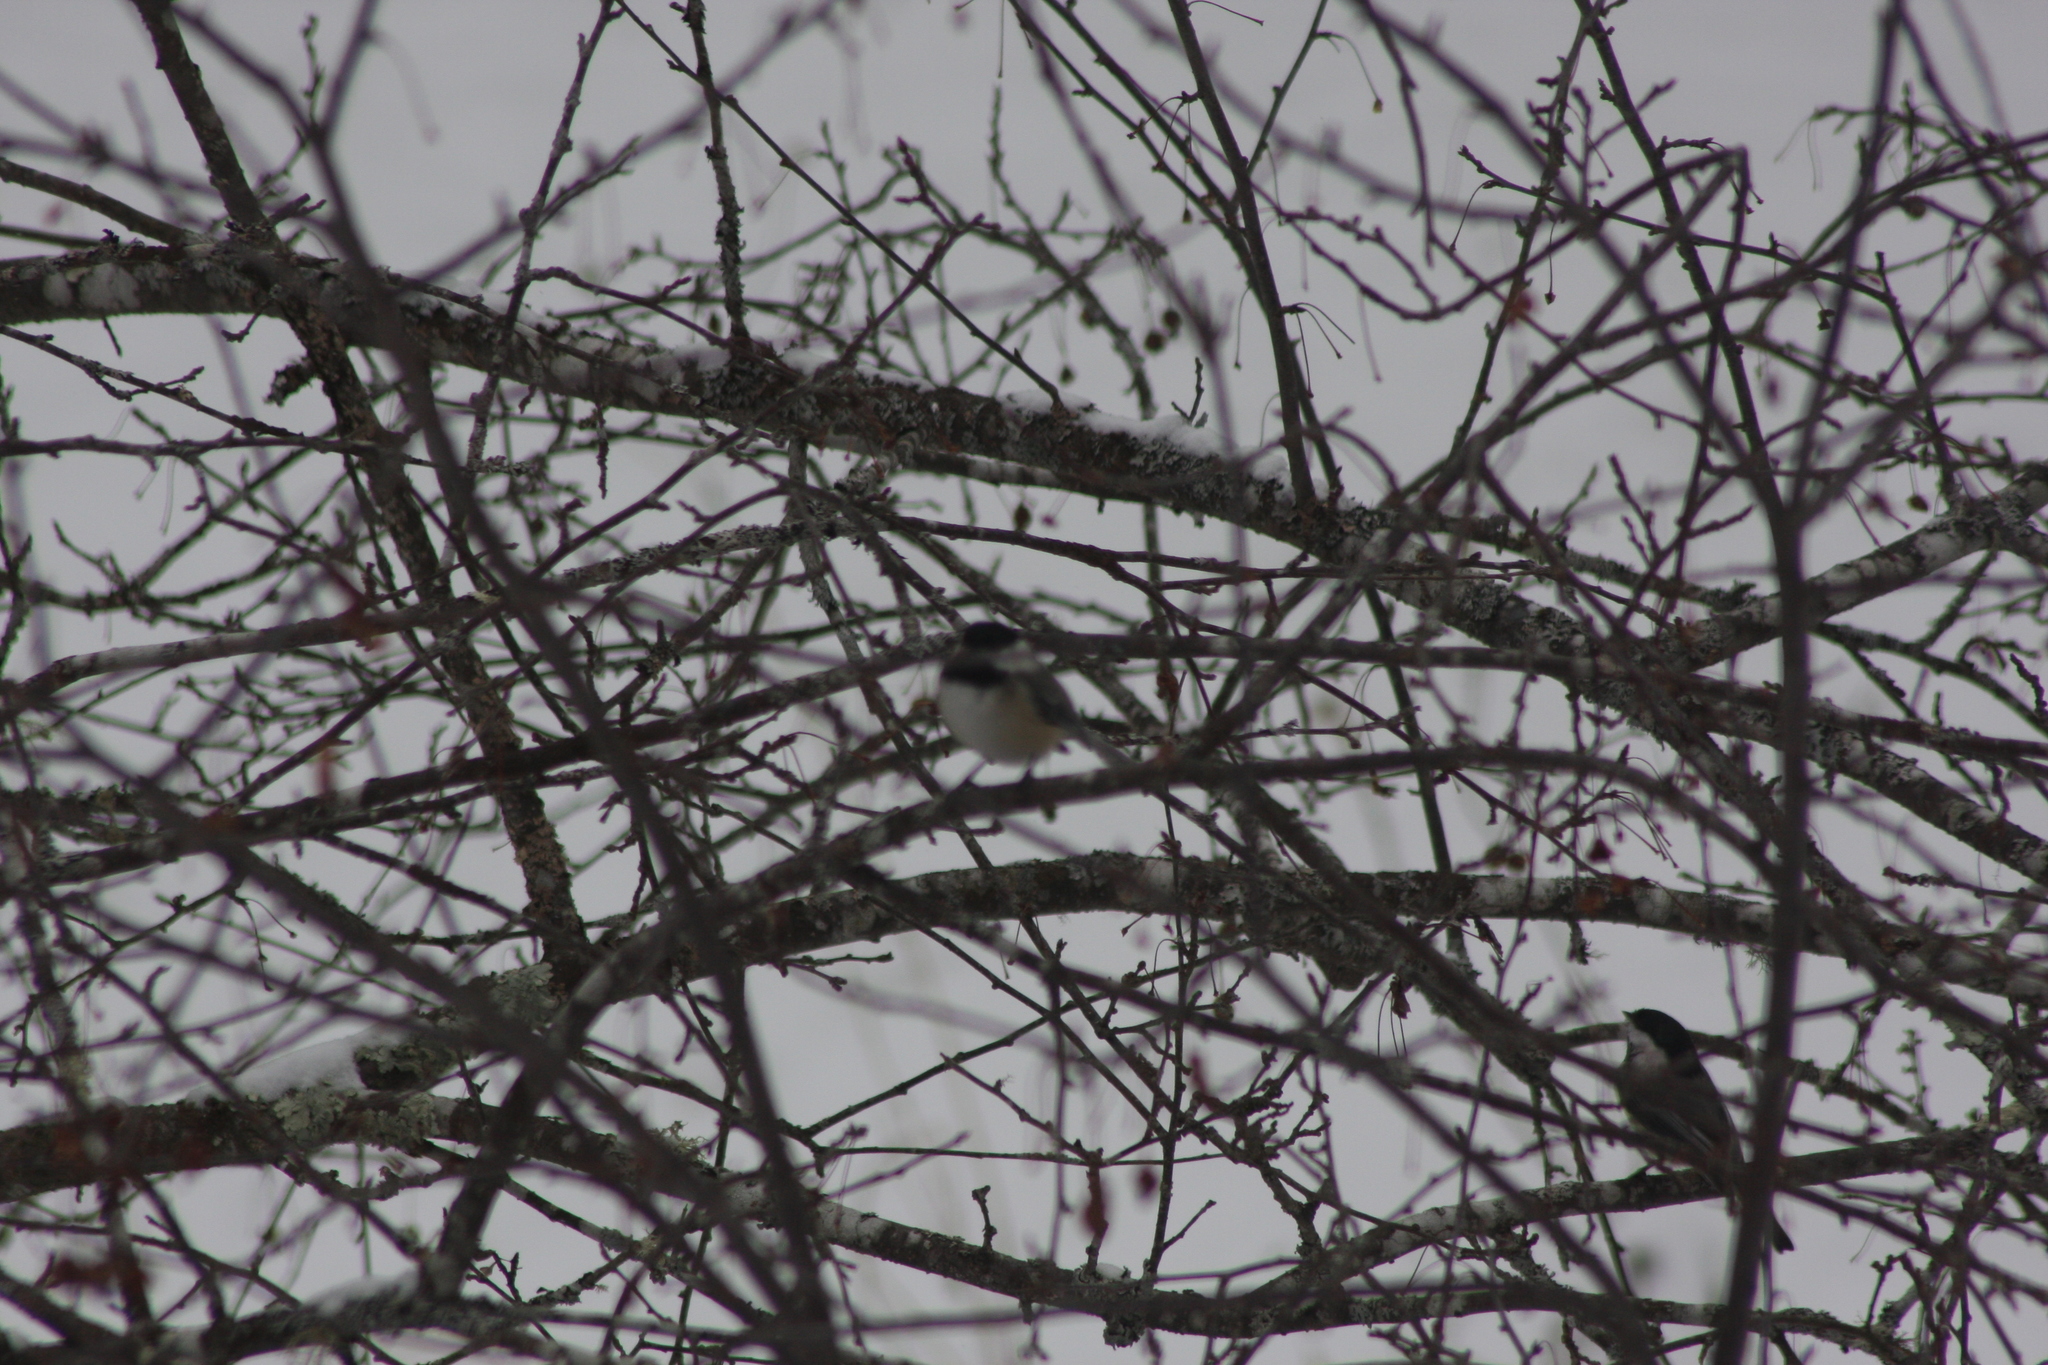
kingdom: Animalia
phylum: Chordata
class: Aves
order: Passeriformes
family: Paridae
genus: Poecile
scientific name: Poecile atricapillus
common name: Black-capped chickadee
